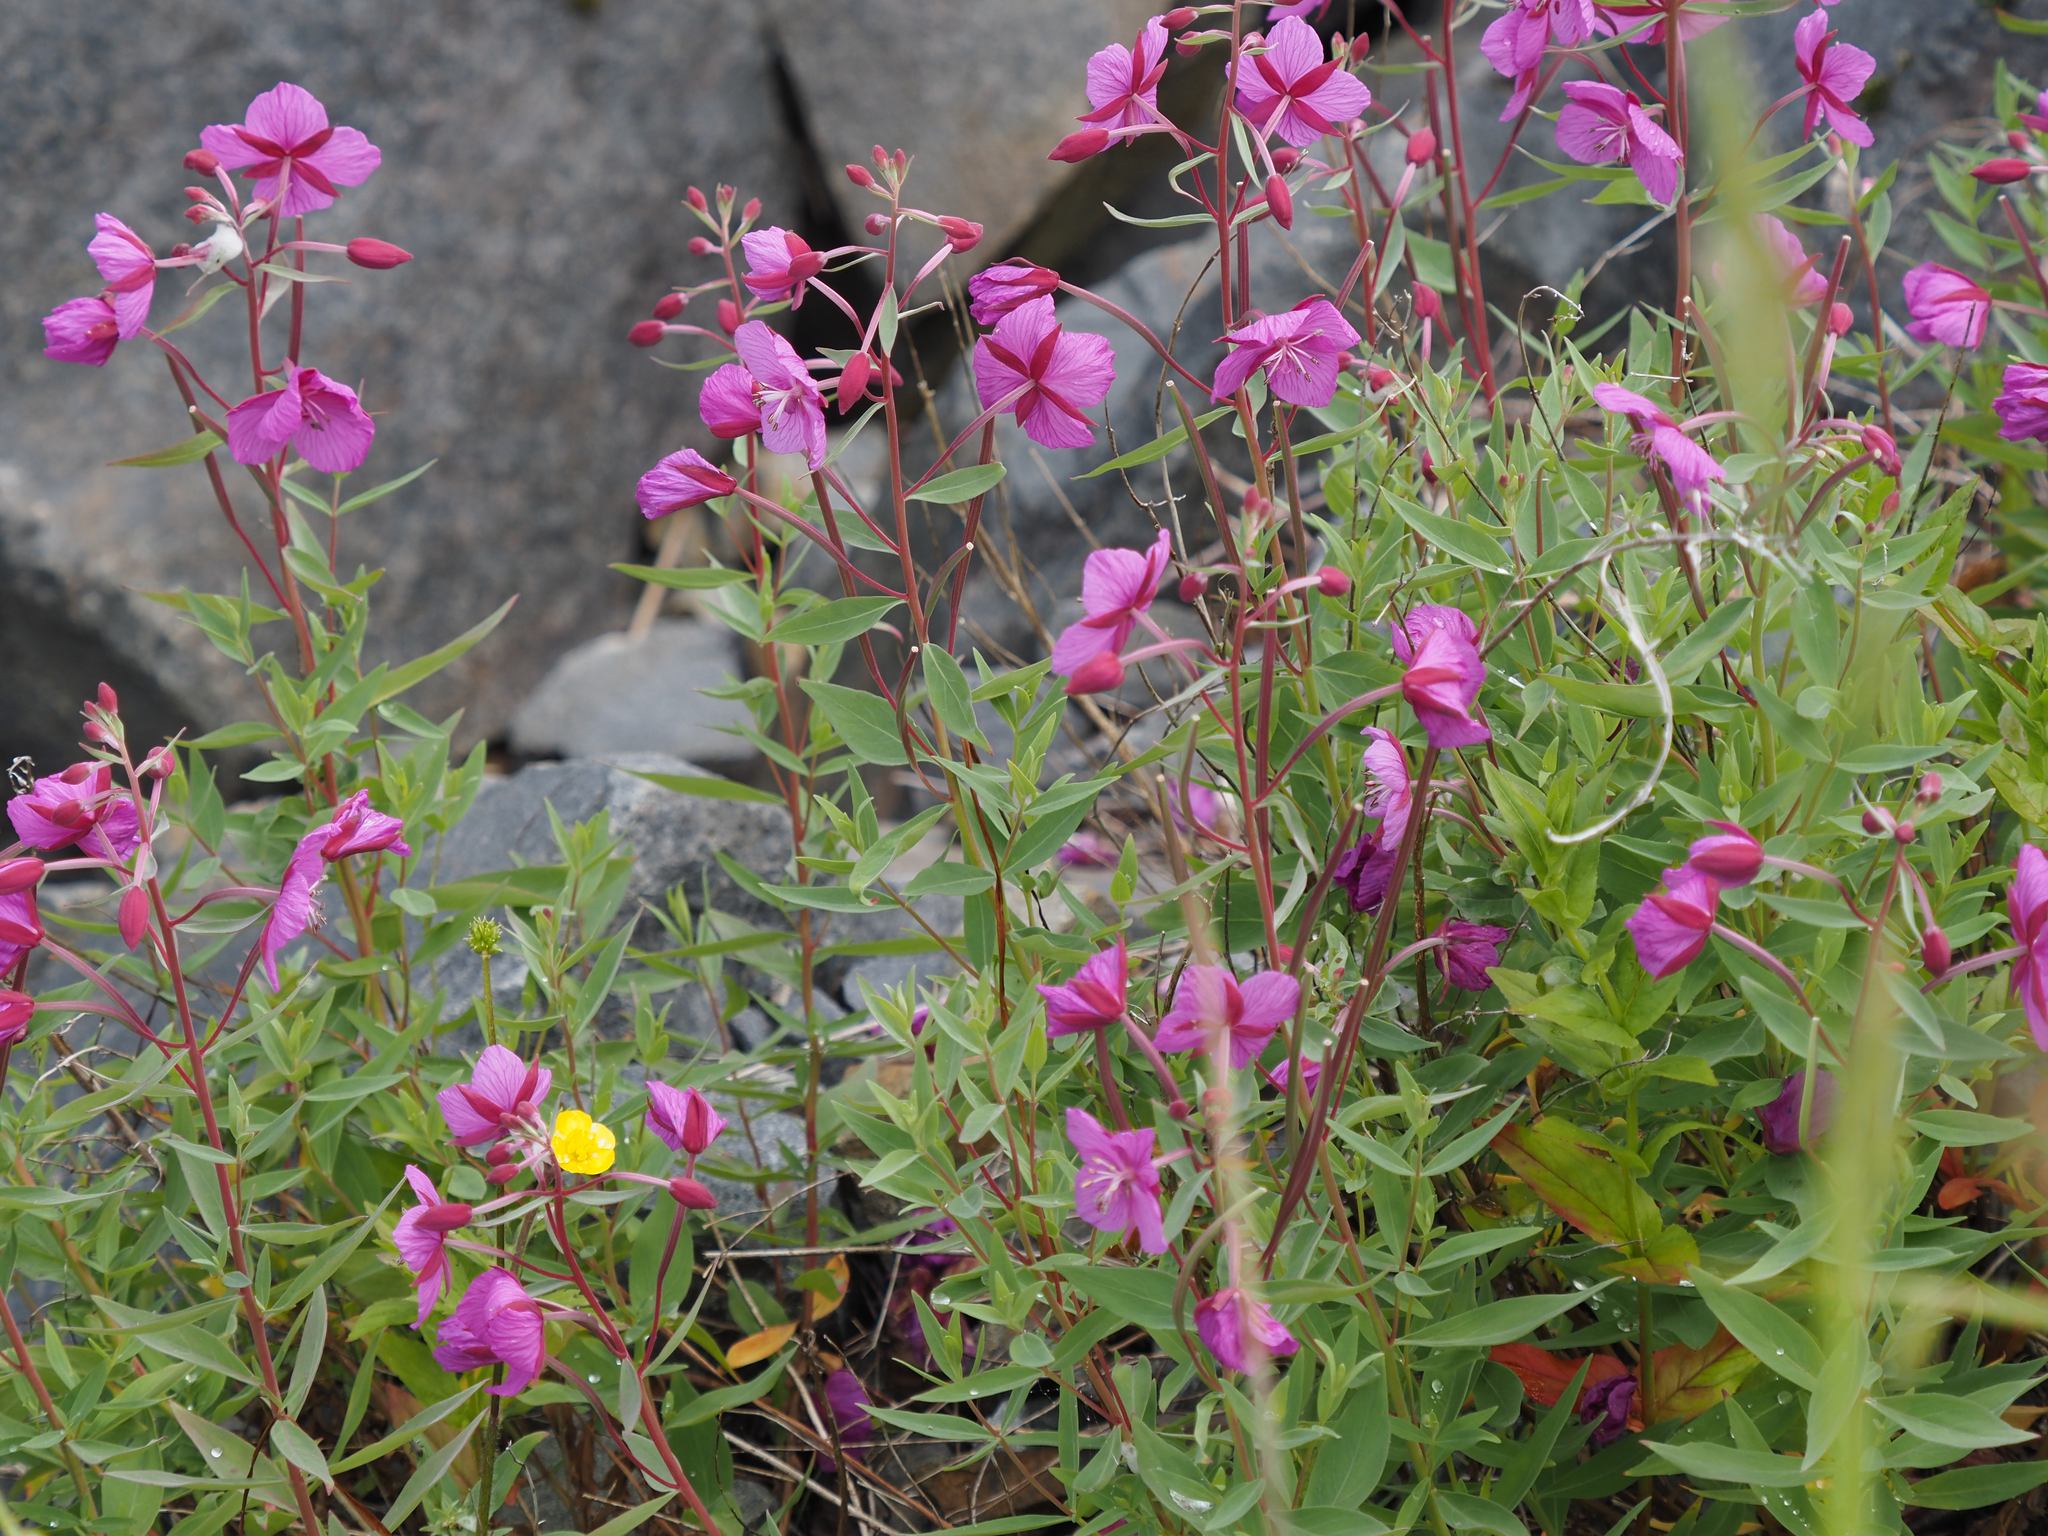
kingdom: Plantae
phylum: Tracheophyta
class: Magnoliopsida
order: Myrtales
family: Onagraceae
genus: Chamaenerion
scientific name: Chamaenerion latifolium
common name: Dwarf fireweed
